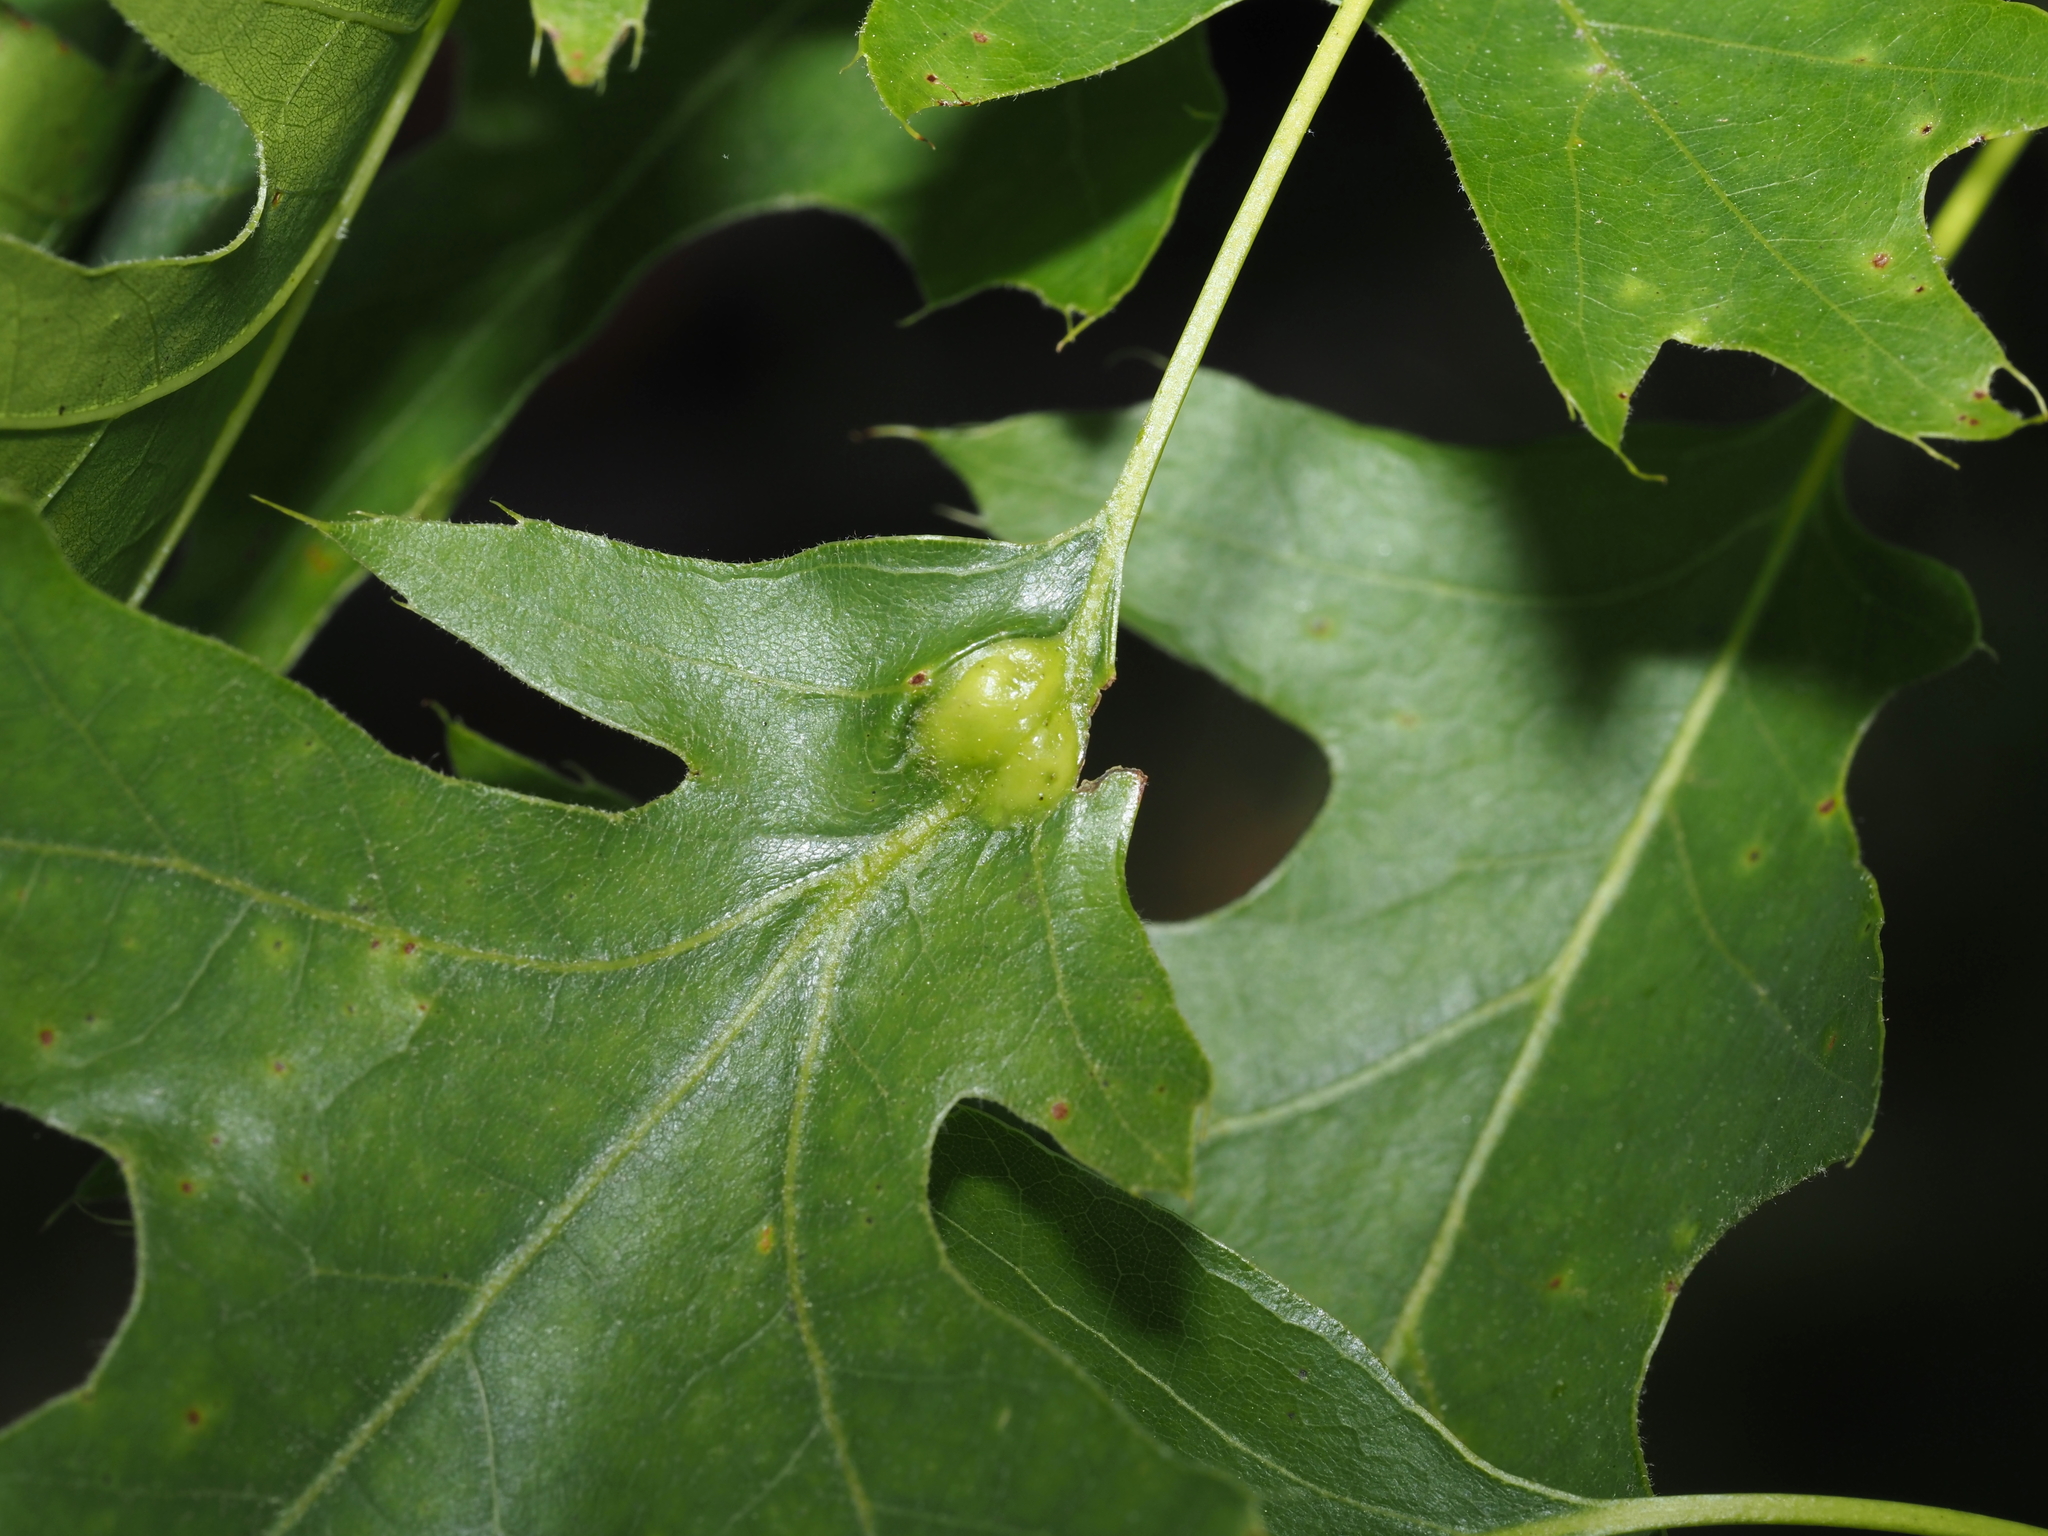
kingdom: Animalia
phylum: Arthropoda
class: Insecta
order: Hymenoptera
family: Cynipidae
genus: Melikaiella
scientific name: Melikaiella tumifica
